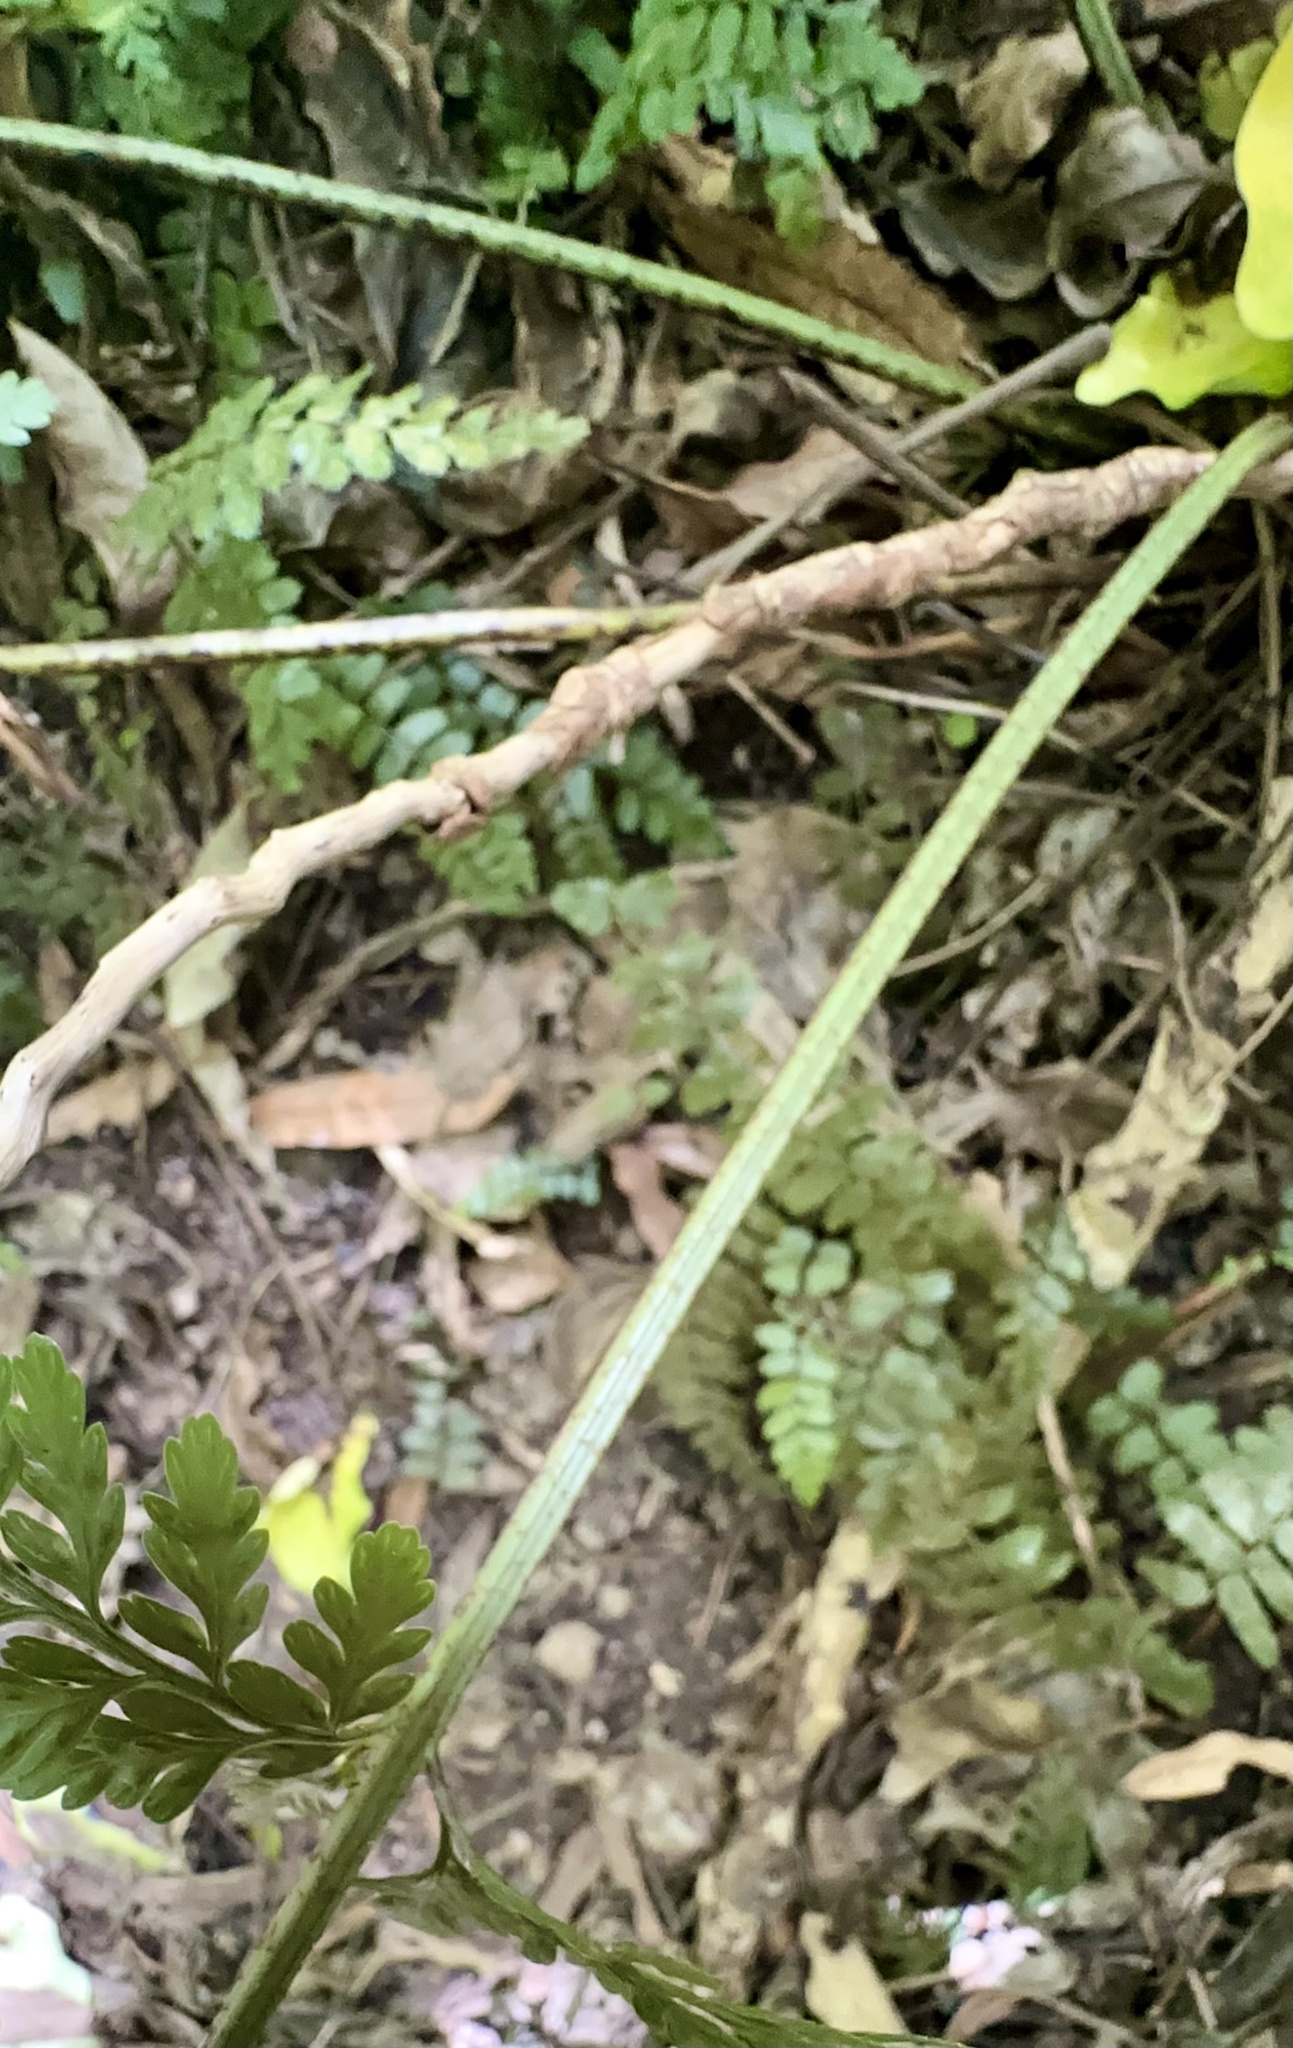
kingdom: Plantae
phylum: Tracheophyta
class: Polypodiopsida
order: Polypodiales
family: Aspleniaceae
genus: Asplenium
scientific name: Asplenium
